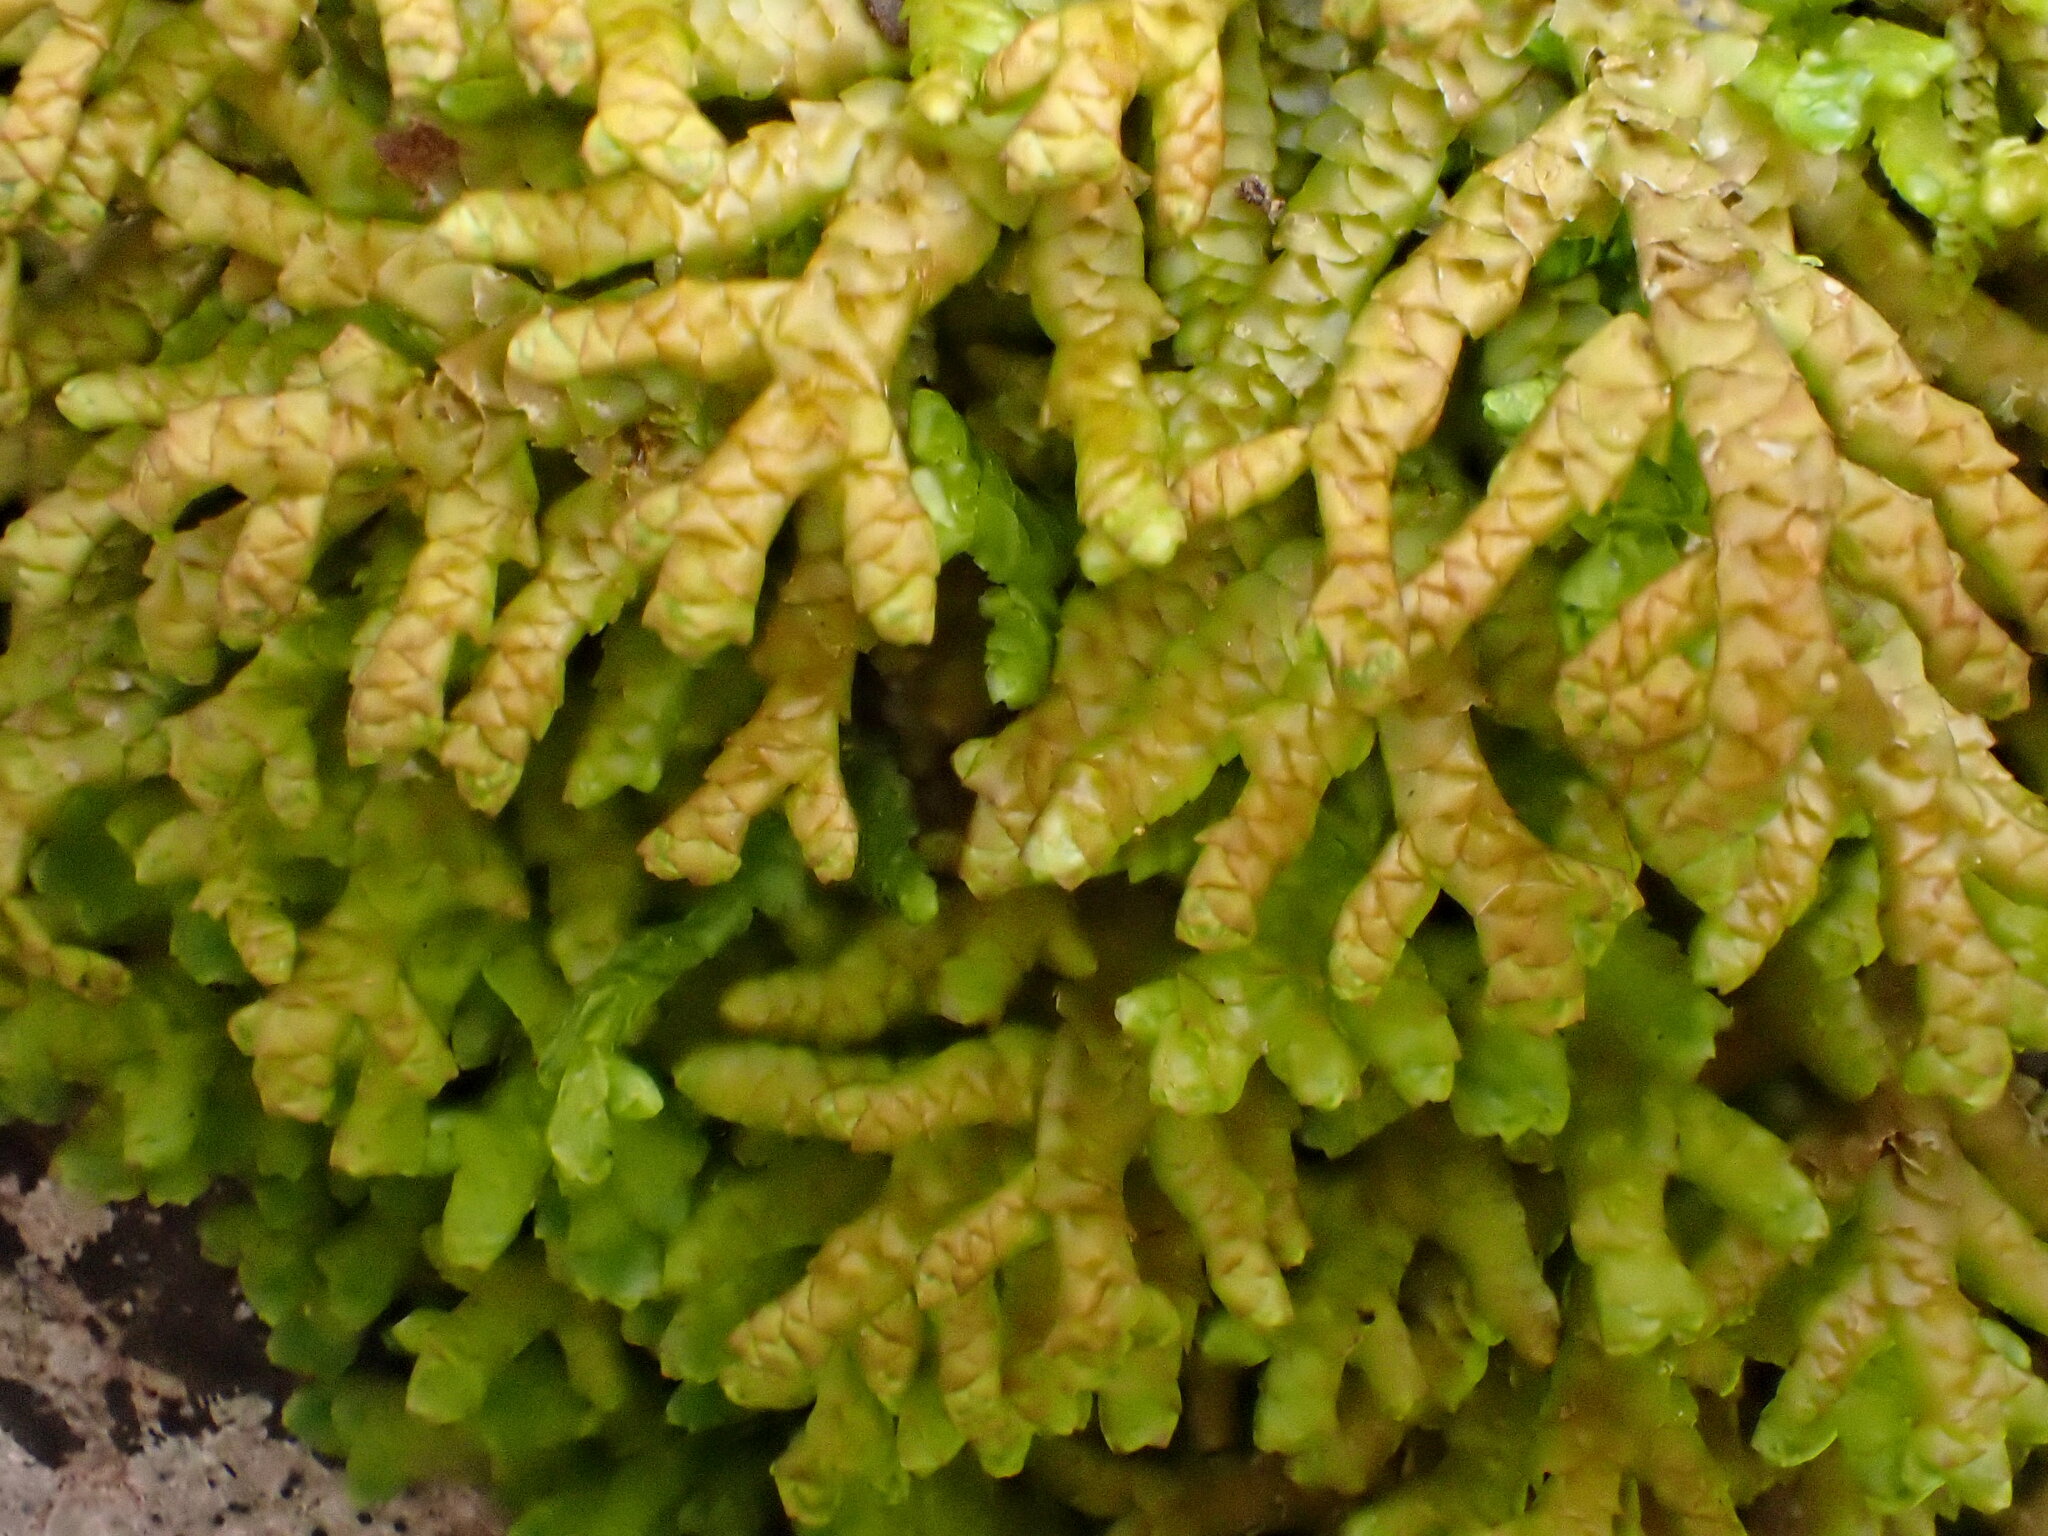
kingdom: Plantae
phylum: Marchantiophyta
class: Jungermanniopsida
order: Porellales
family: Porellaceae
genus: Porella
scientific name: Porella platyphylla
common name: Wall scalewort
